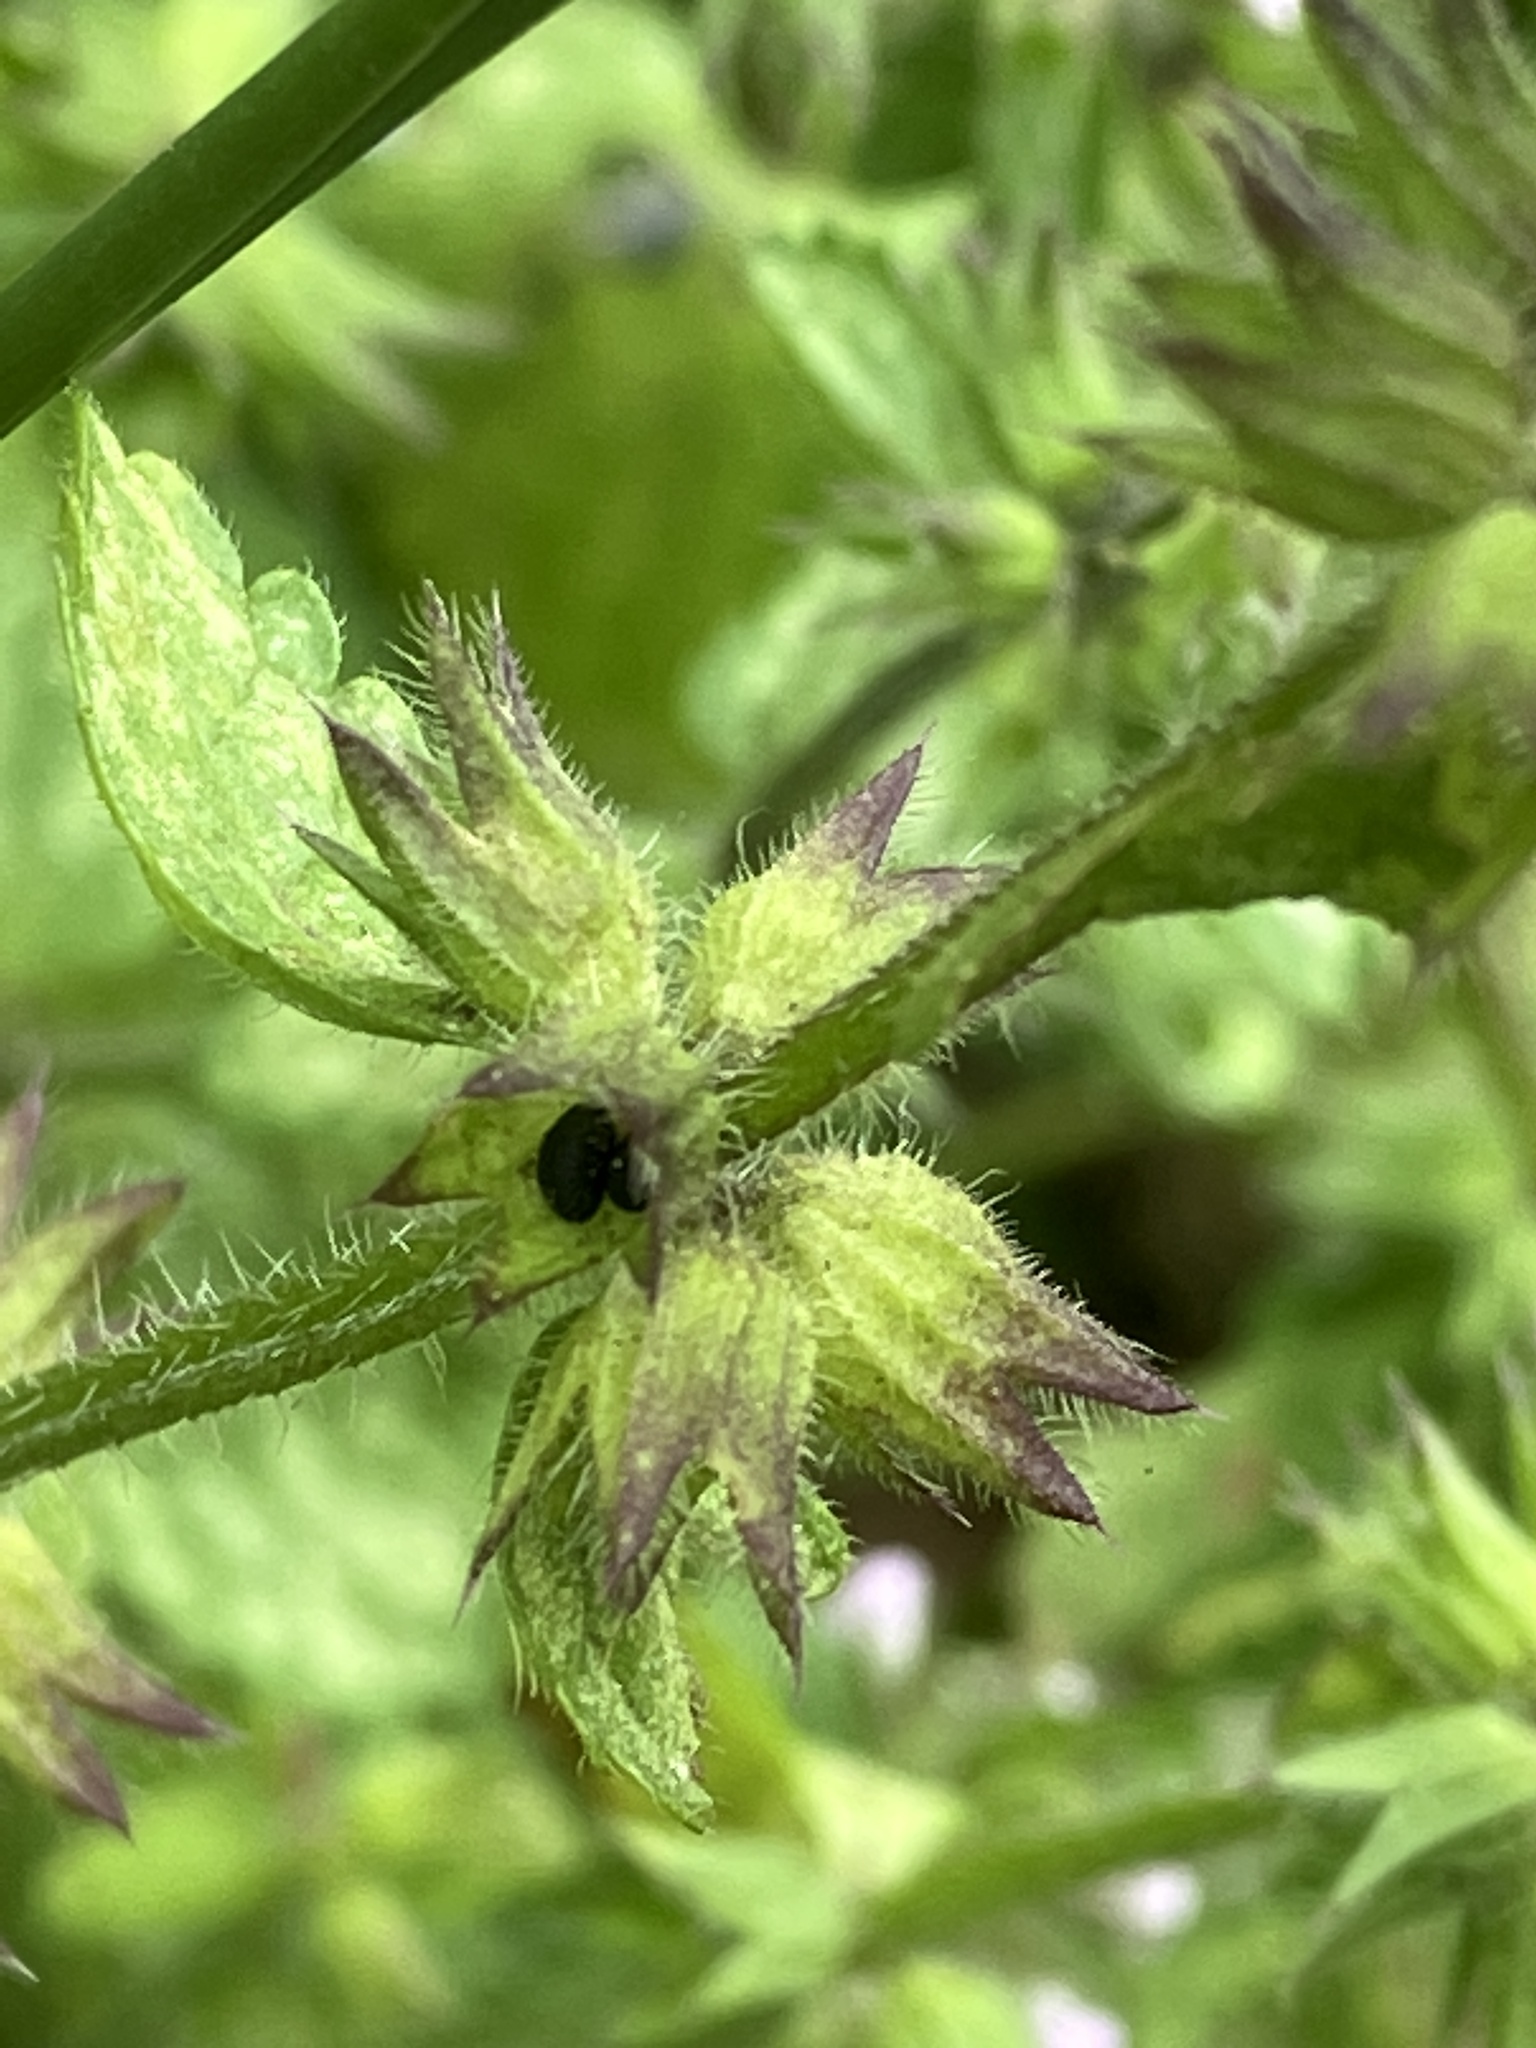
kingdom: Plantae
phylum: Tracheophyta
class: Magnoliopsida
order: Lamiales
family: Lamiaceae
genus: Stachys
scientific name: Stachys arvensis
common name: Field woundwort
